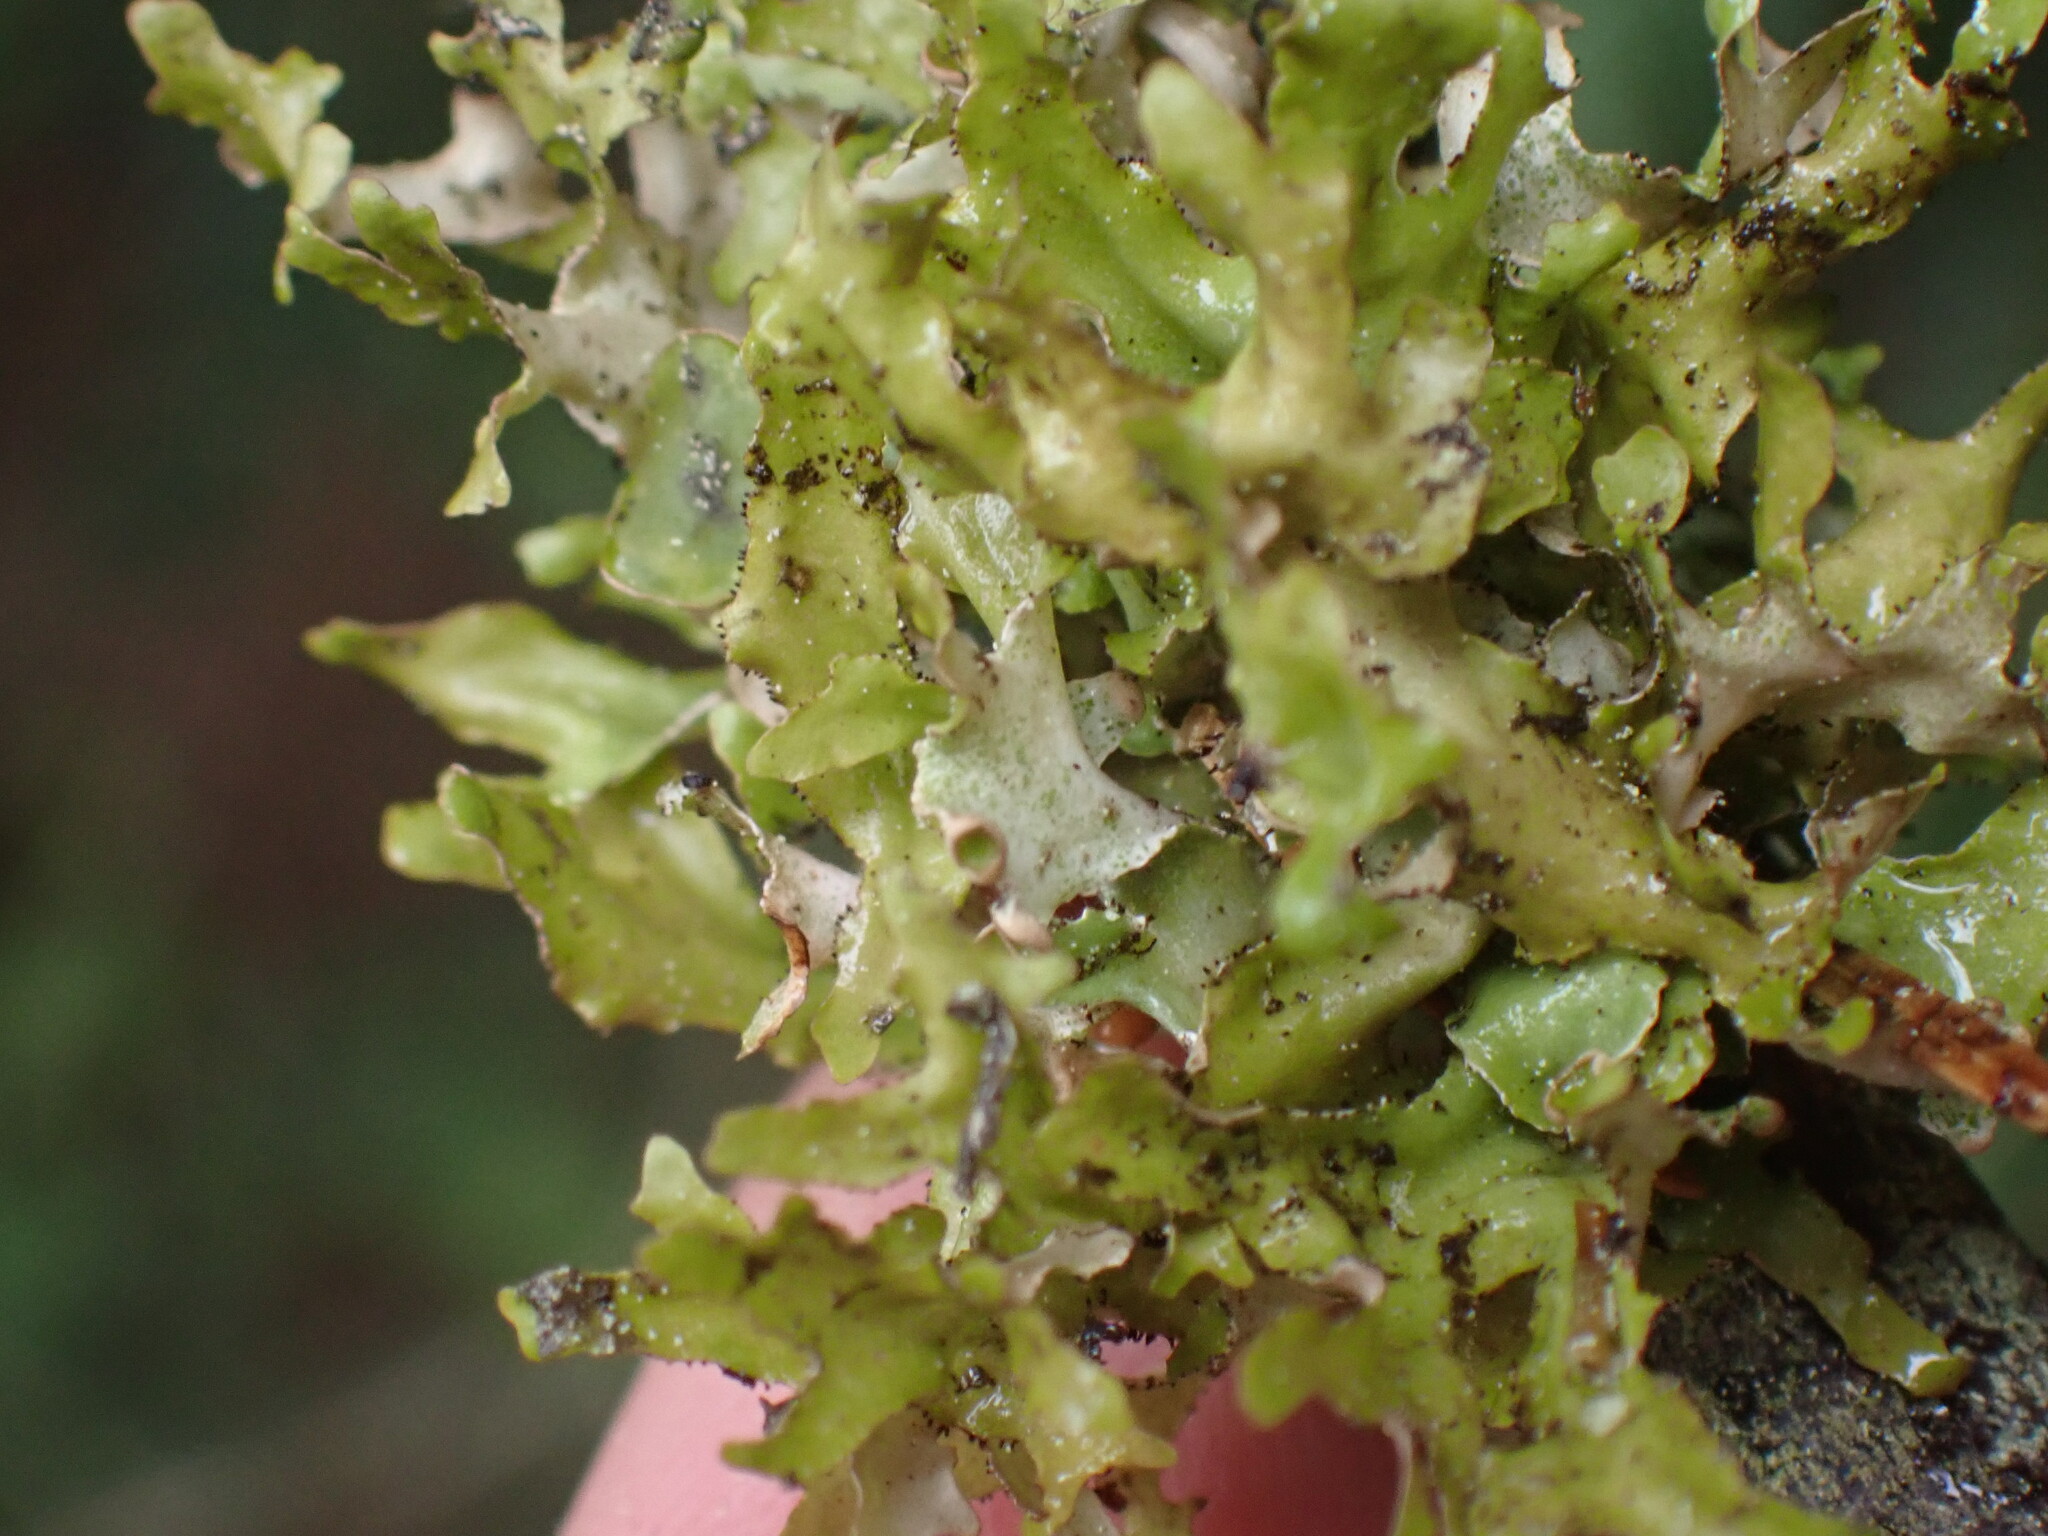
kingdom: Fungi
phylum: Ascomycota
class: Lecanoromycetes
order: Lecanorales
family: Parmeliaceae
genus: Nephromopsis
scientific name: Nephromopsis orbata
